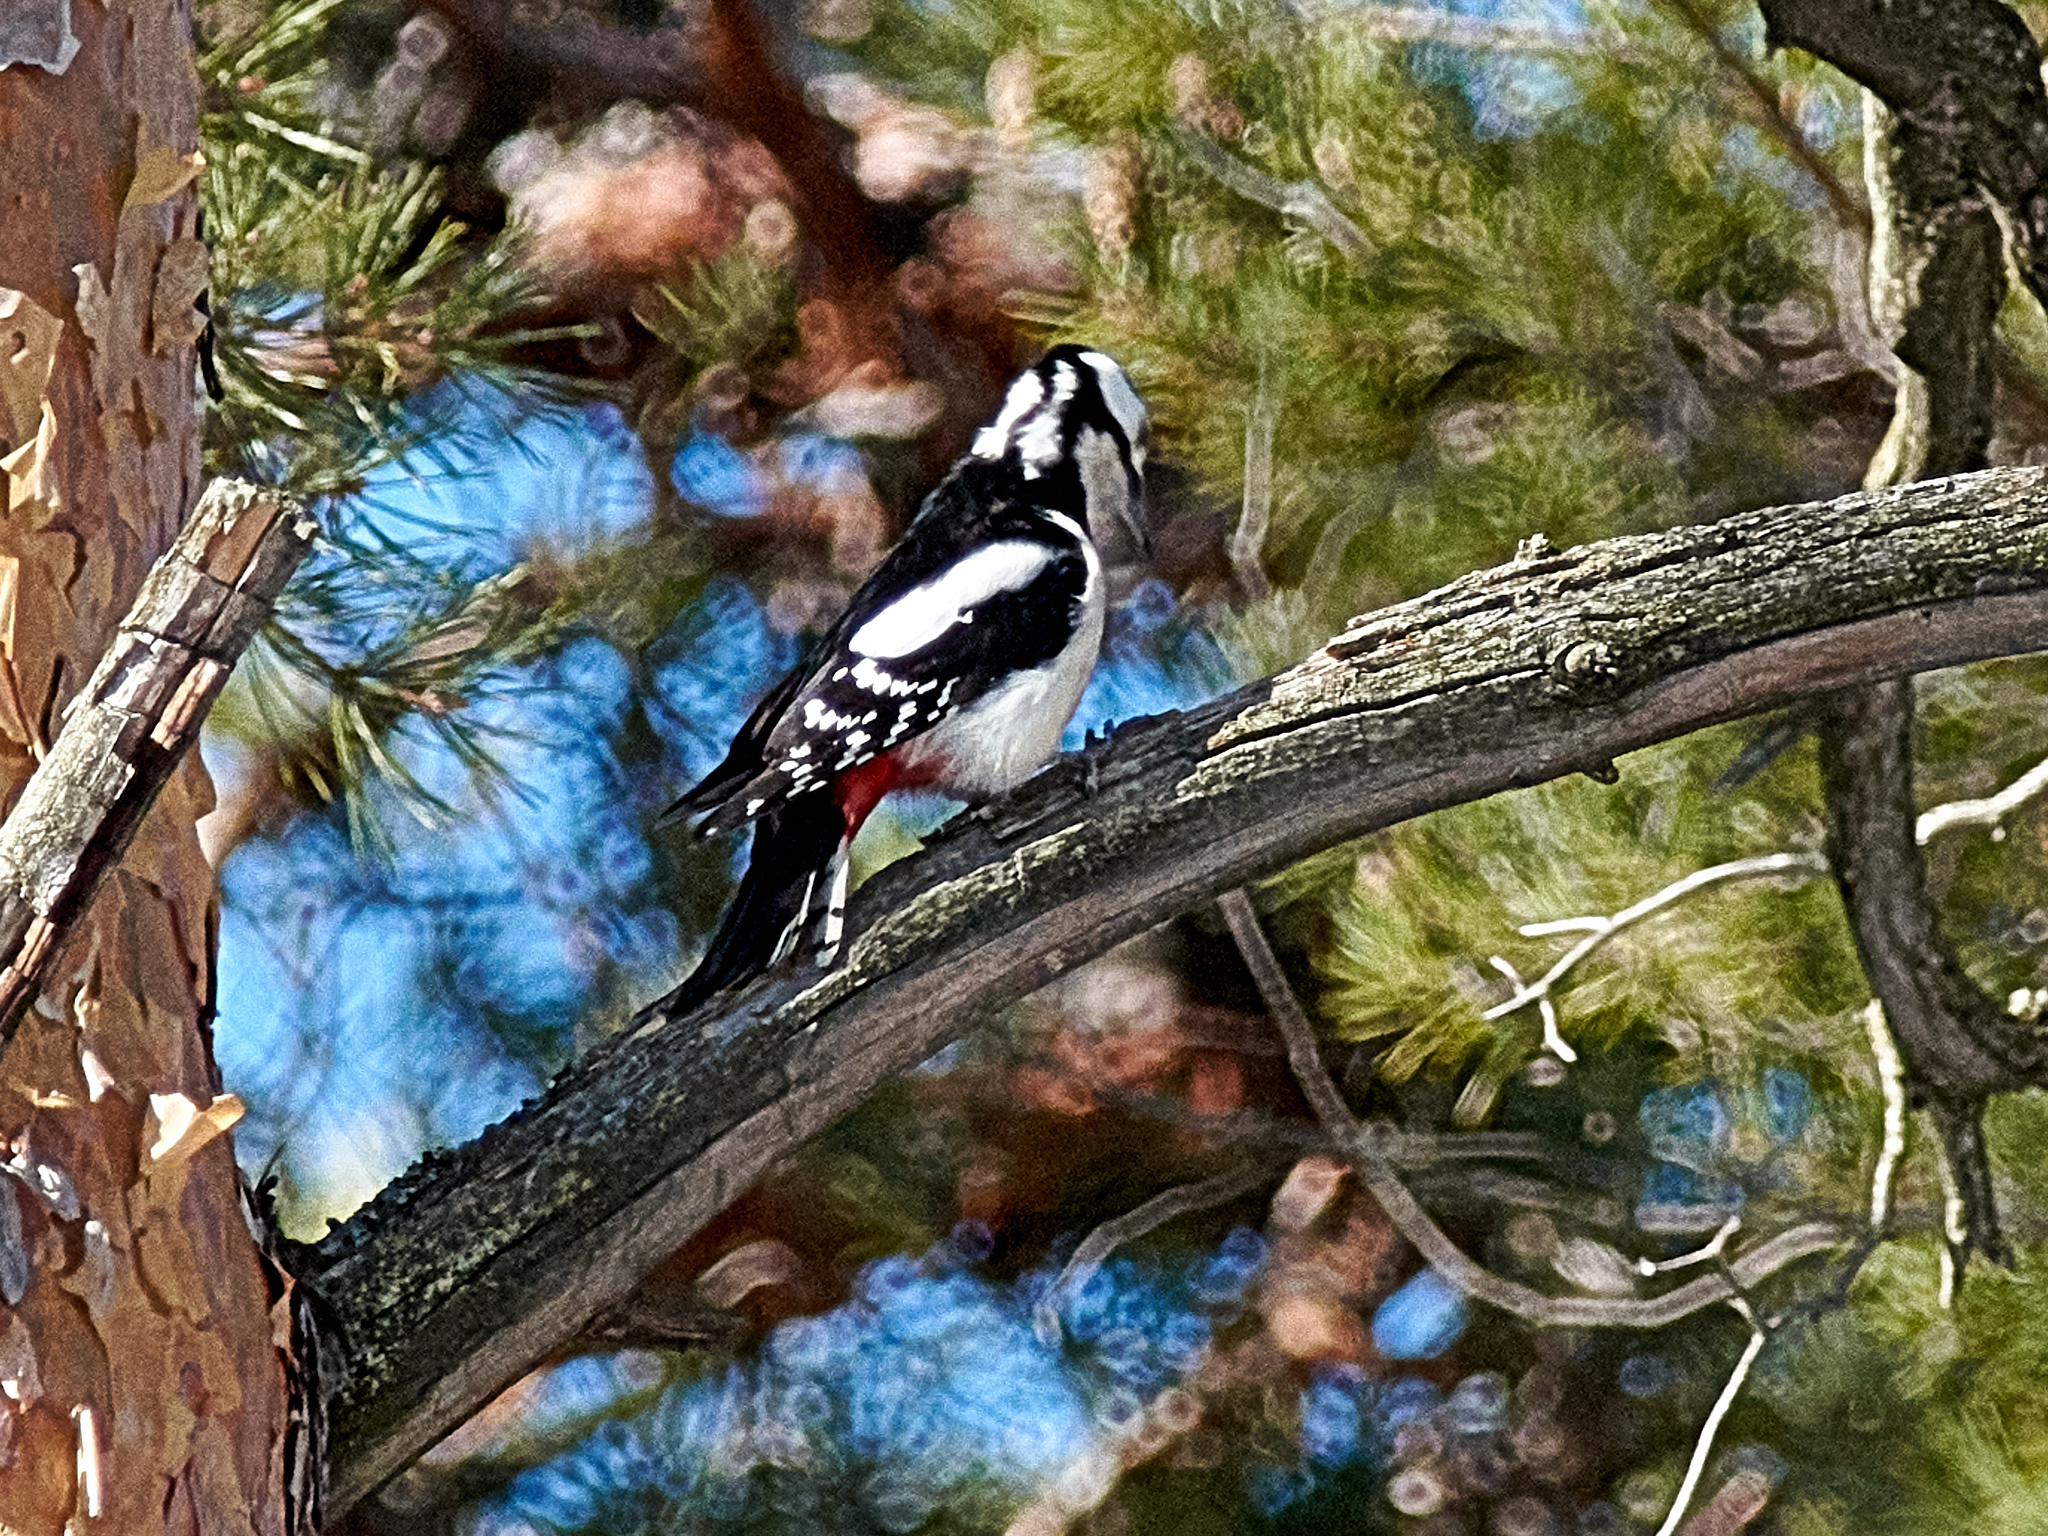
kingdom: Animalia
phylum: Chordata
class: Aves
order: Piciformes
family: Picidae
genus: Dendrocopos
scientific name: Dendrocopos major
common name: Great spotted woodpecker
